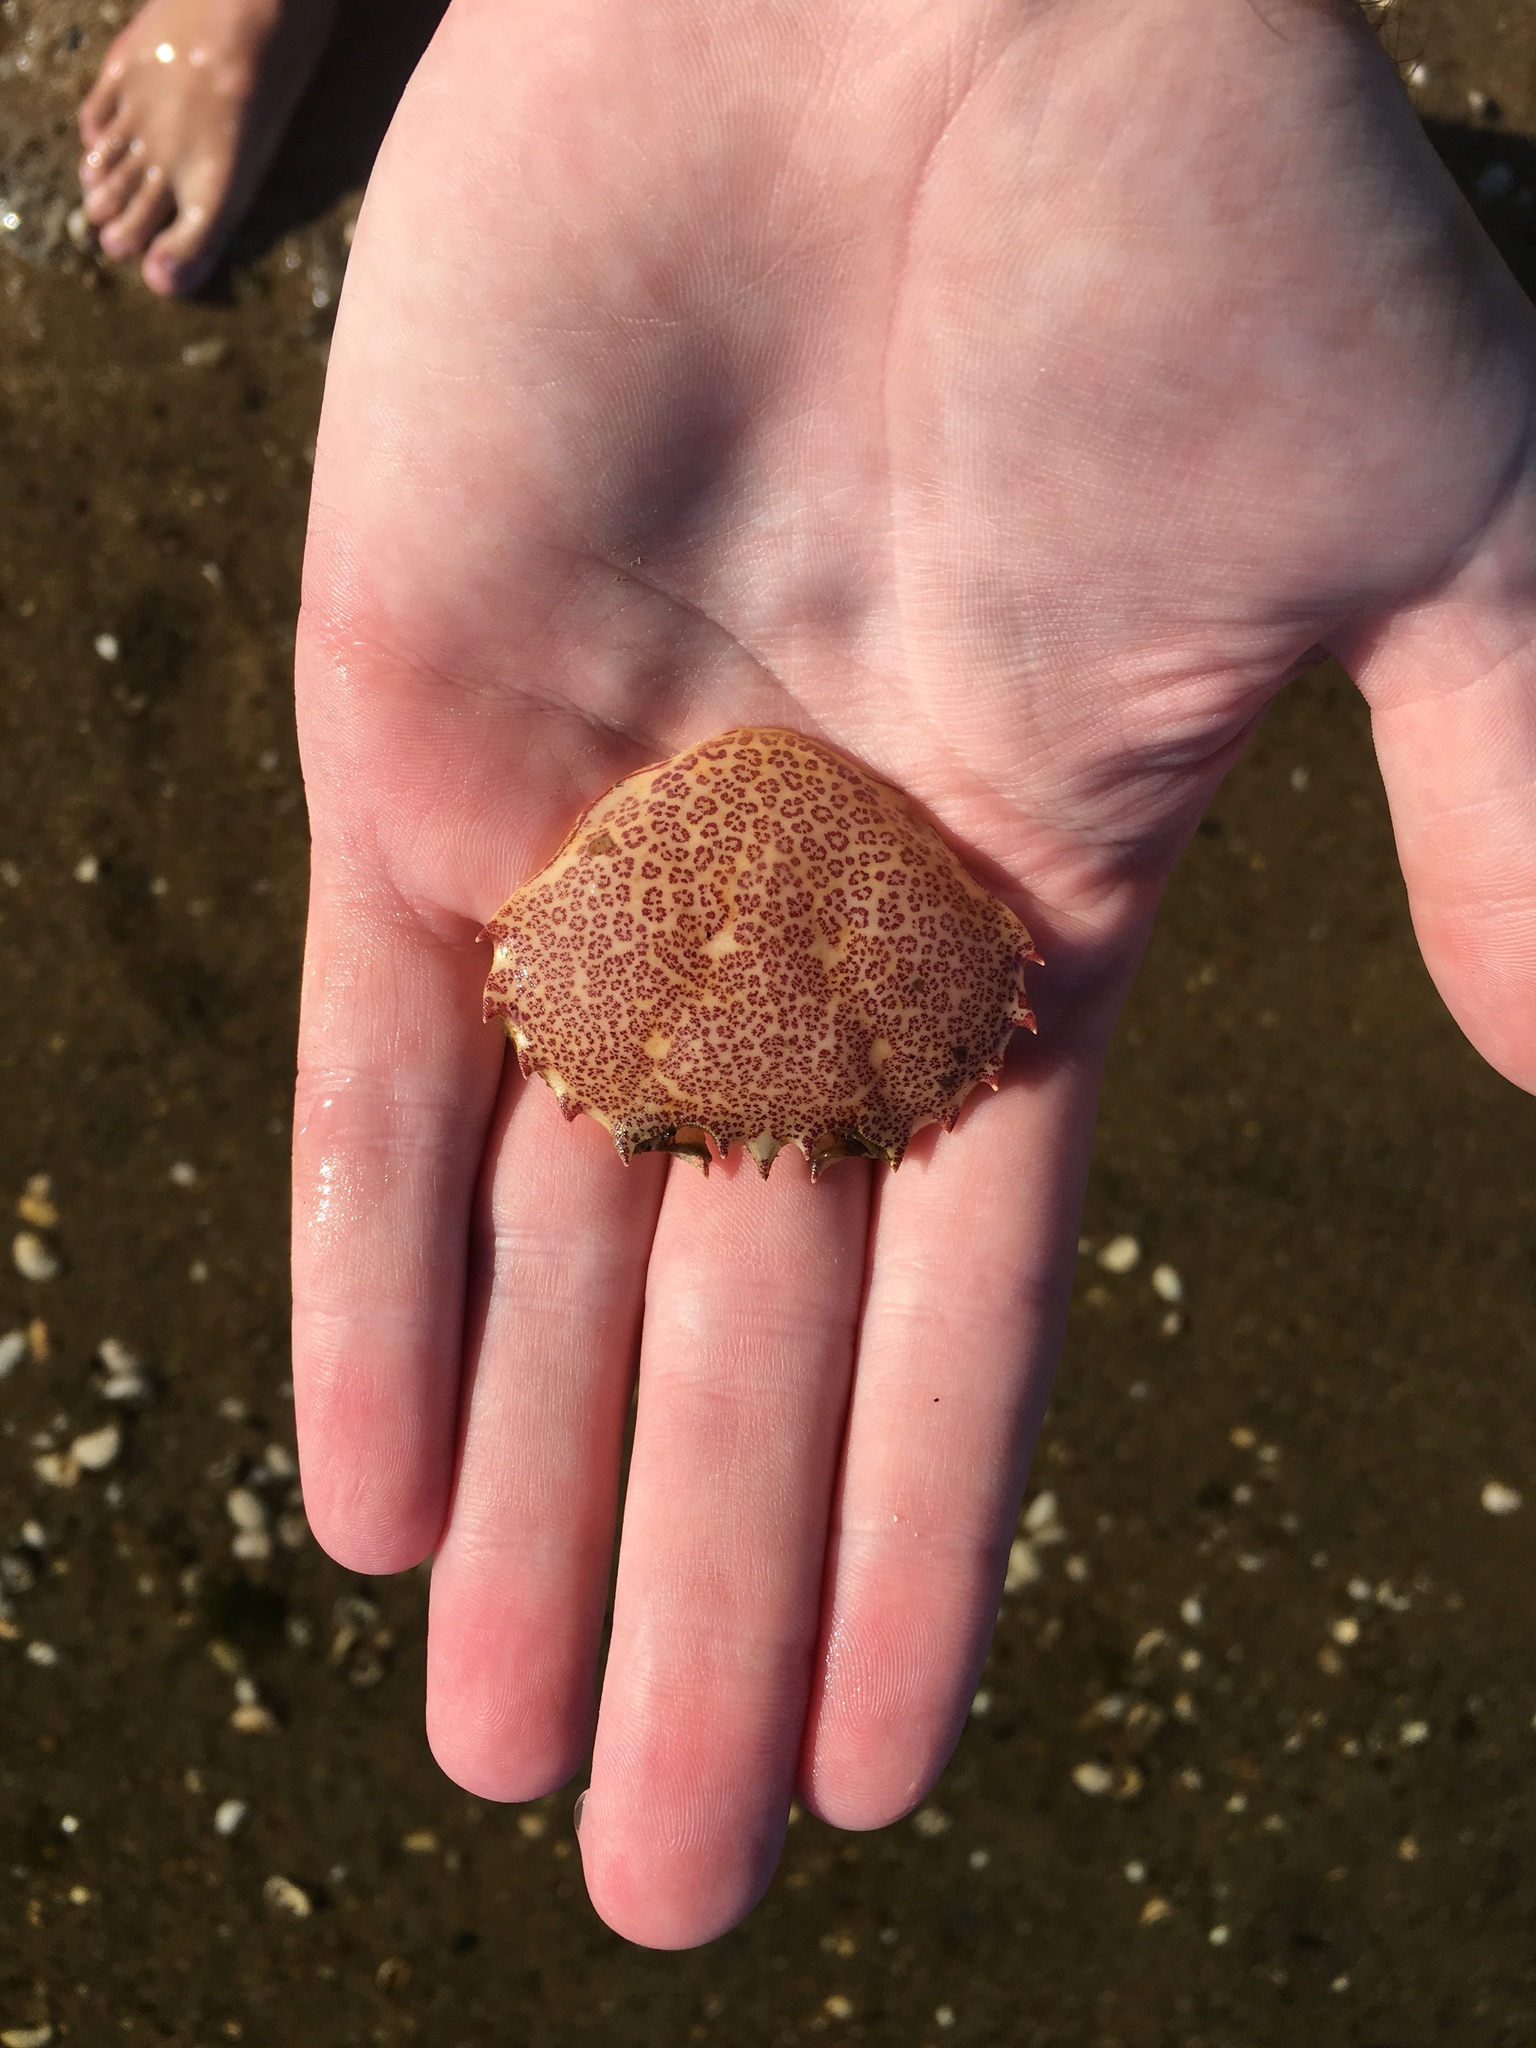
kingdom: Animalia
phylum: Arthropoda
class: Malacostraca
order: Decapoda
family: Ovalipidae
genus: Ovalipes
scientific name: Ovalipes ocellatus
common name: Lady crab
